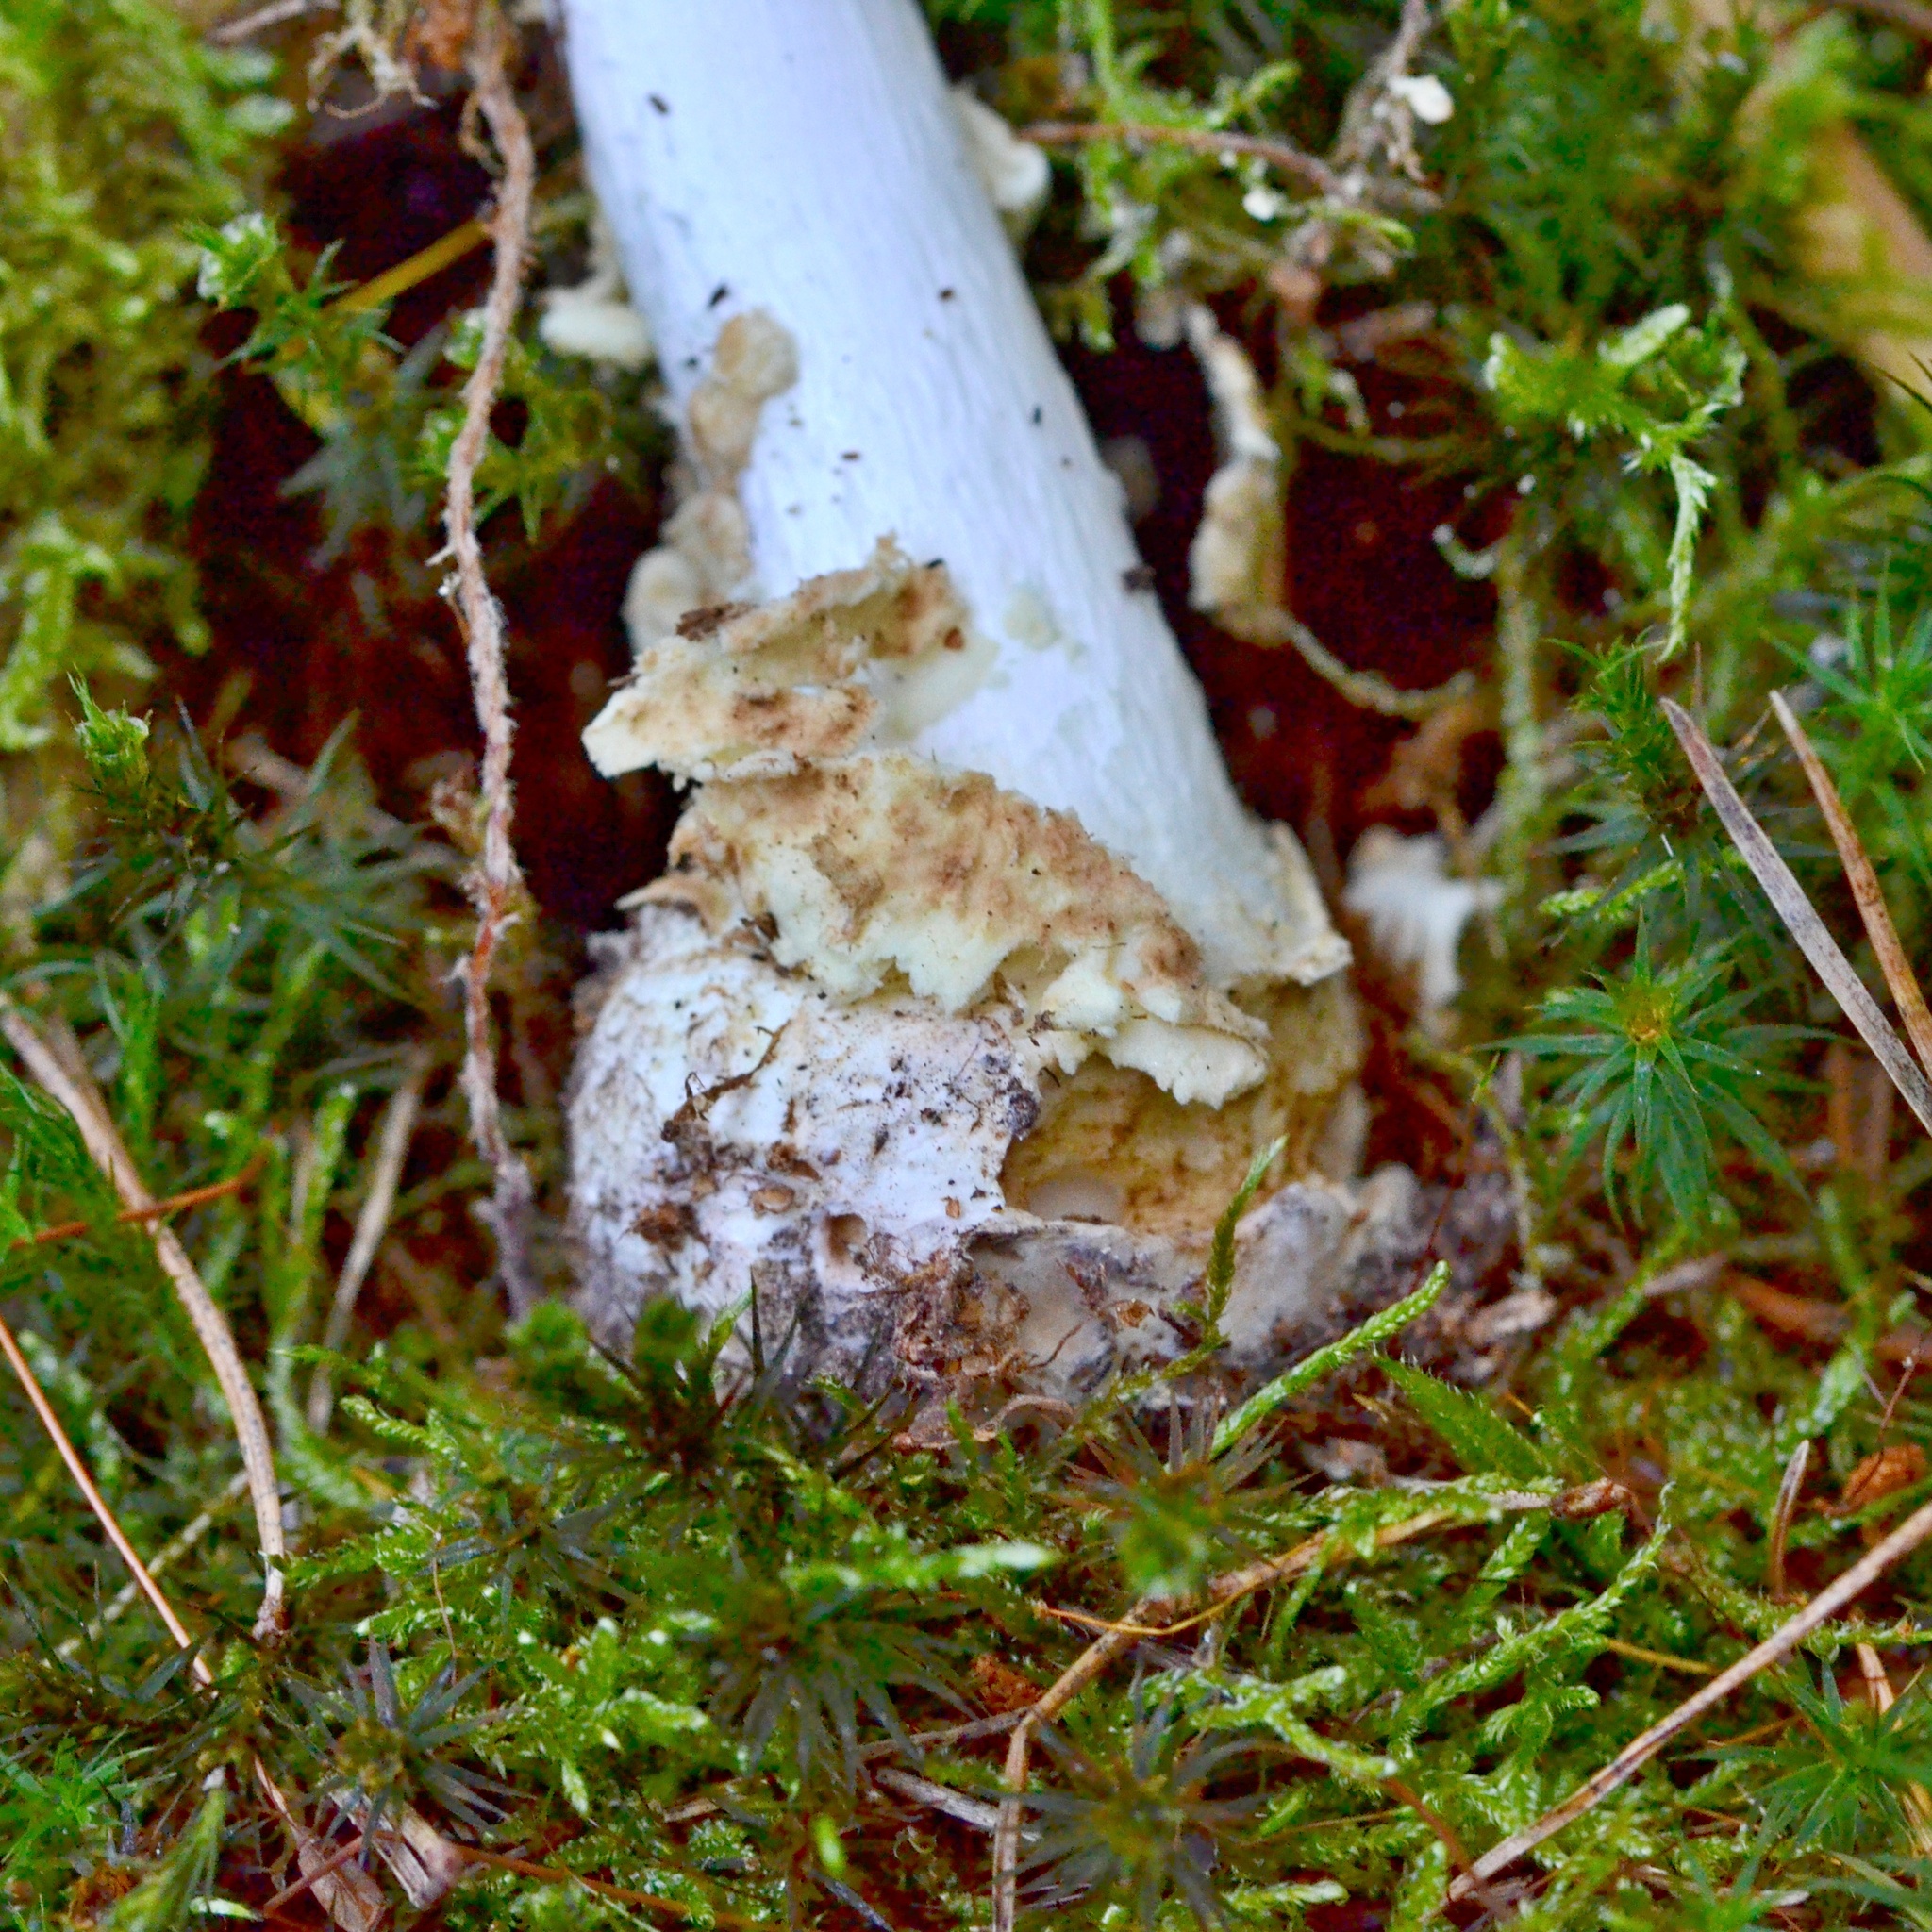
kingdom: Fungi
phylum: Basidiomycota
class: Agaricomycetes
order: Agaricales
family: Amanitaceae
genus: Amanita
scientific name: Amanita citrina
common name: False death-cap
